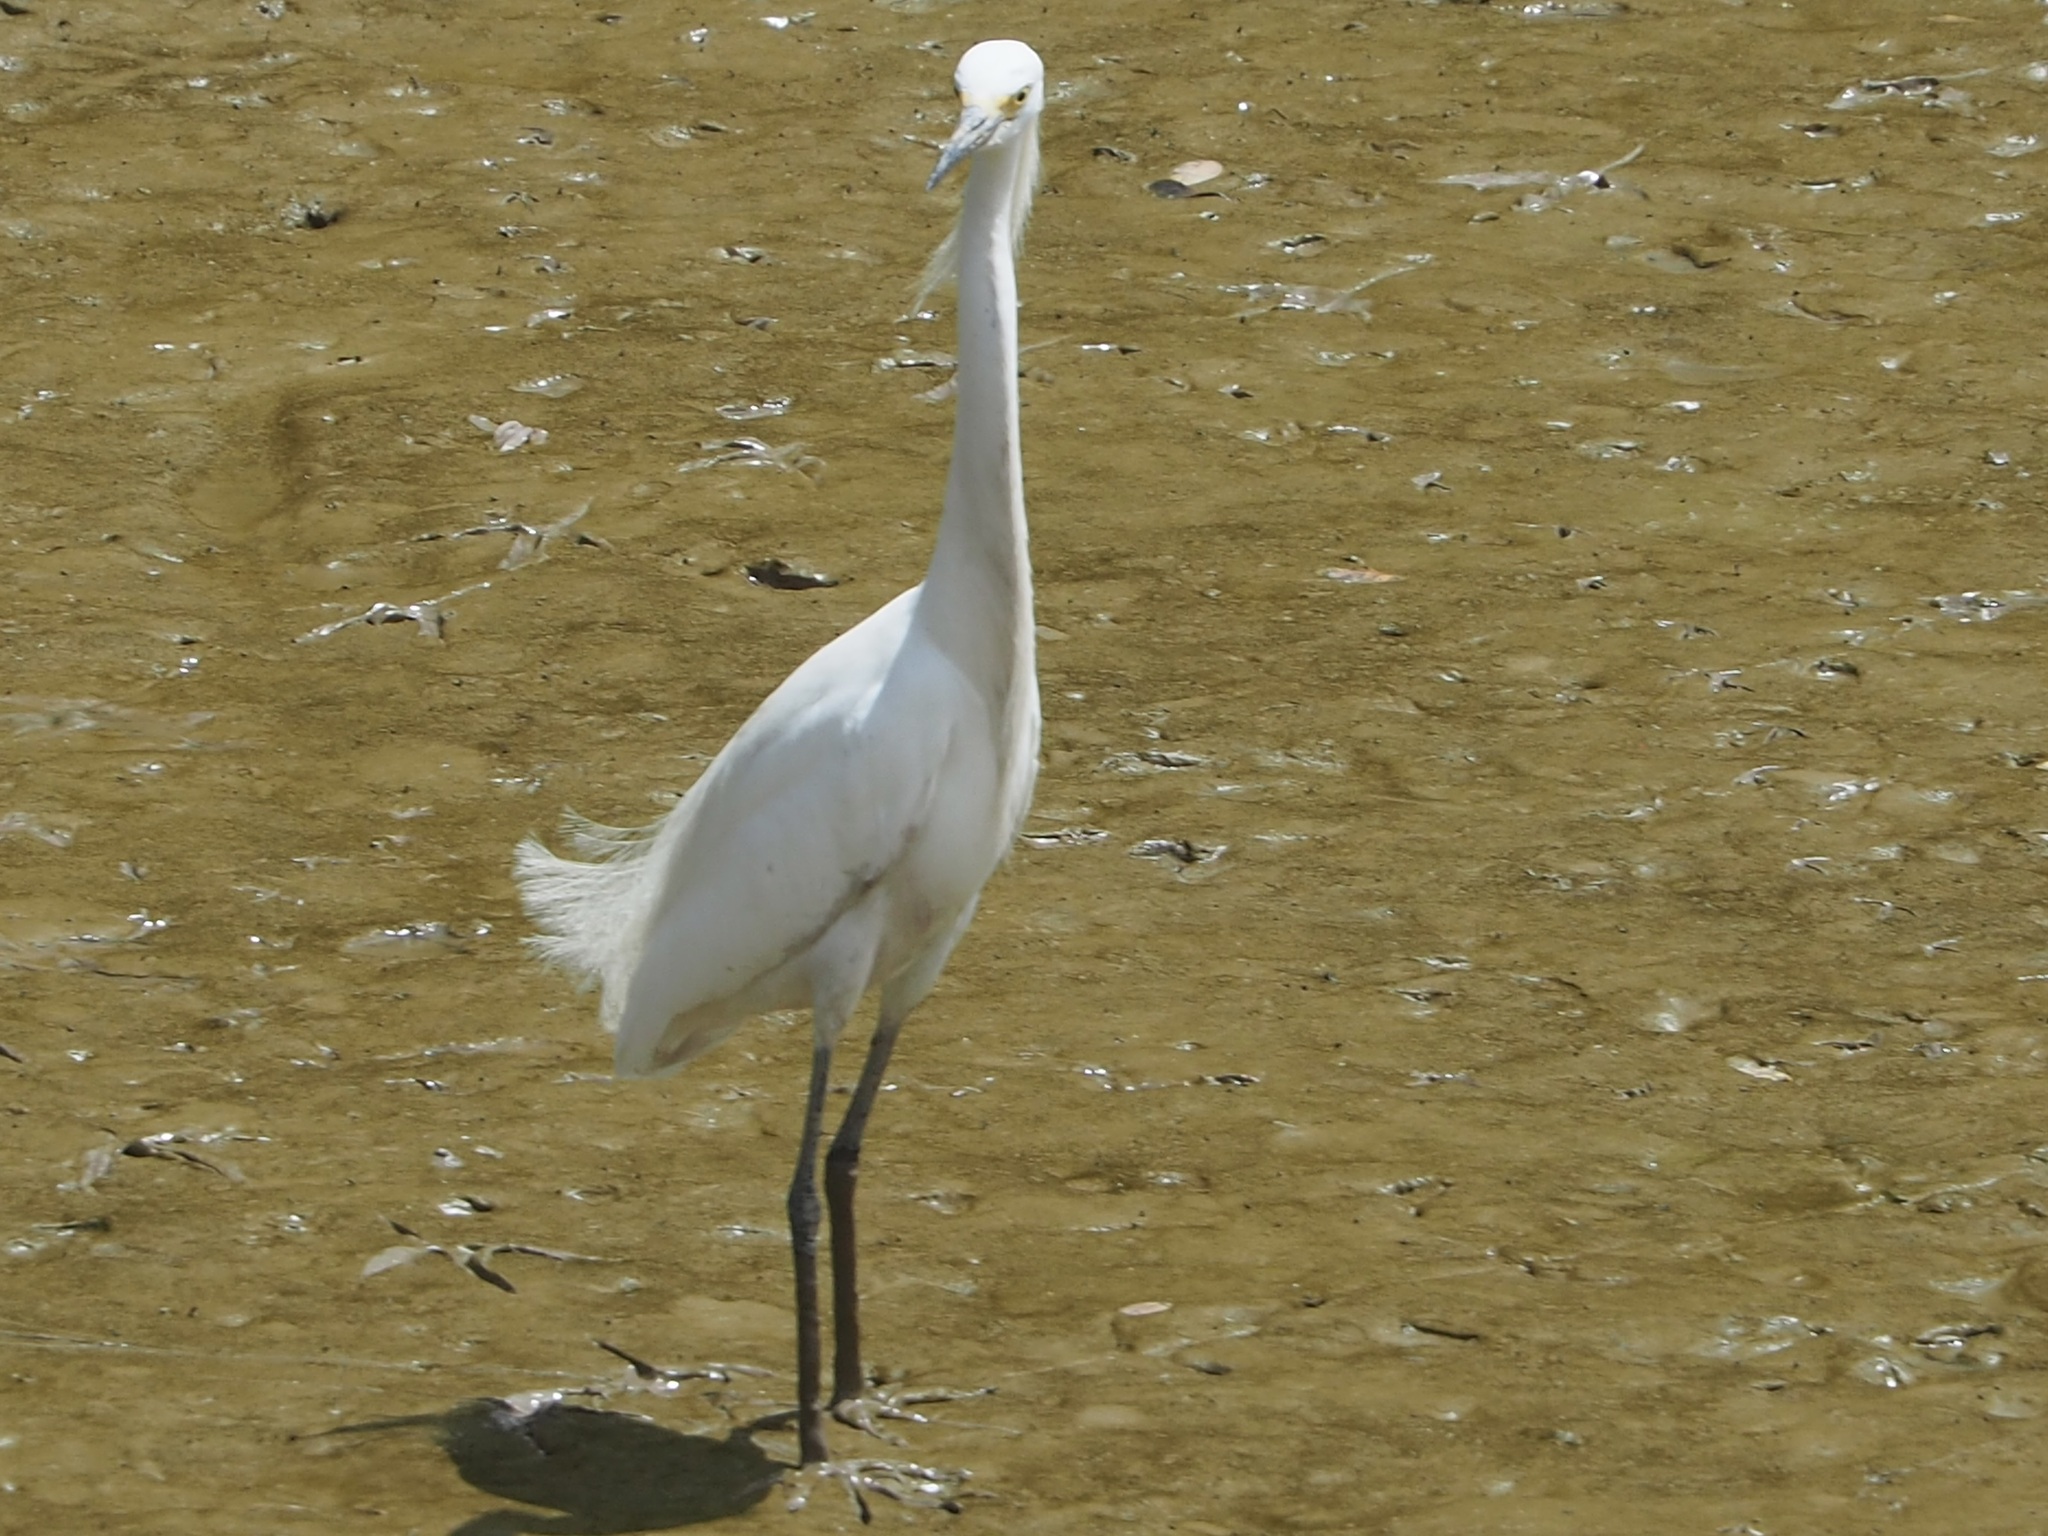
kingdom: Animalia
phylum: Chordata
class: Aves
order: Pelecaniformes
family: Ardeidae
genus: Egretta
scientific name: Egretta thula
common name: Snowy egret
